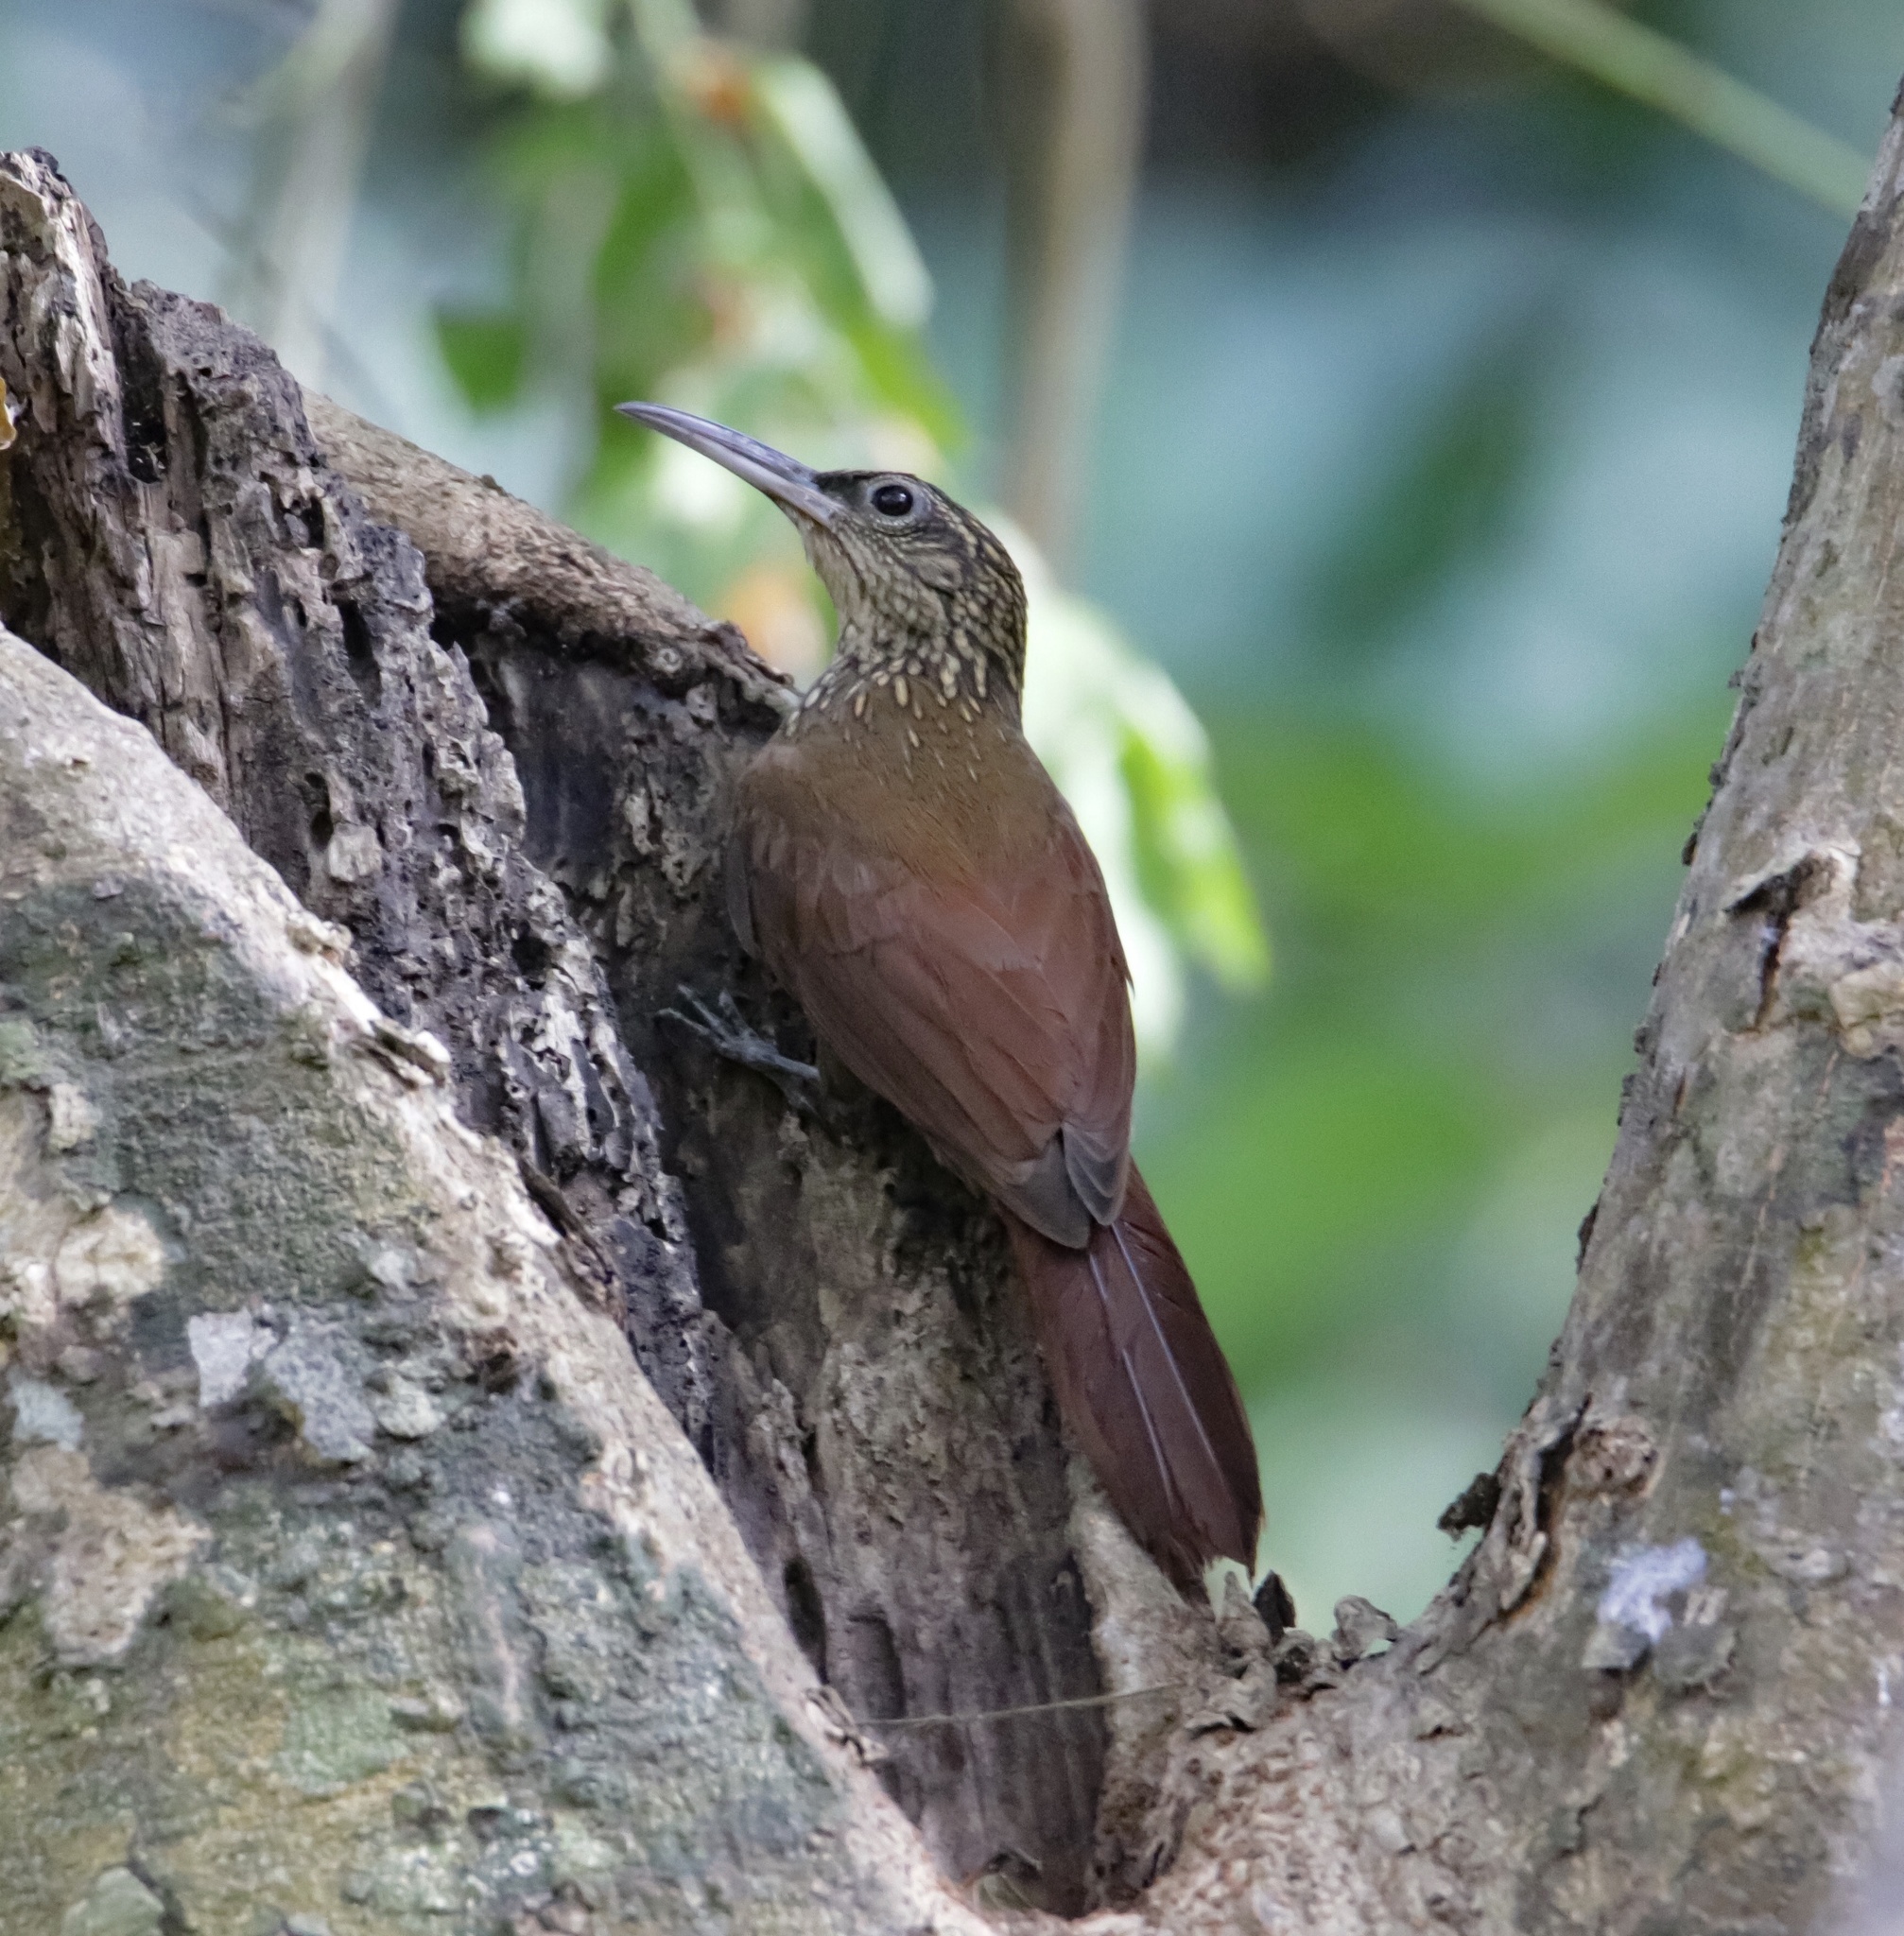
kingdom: Animalia
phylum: Chordata
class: Aves
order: Passeriformes
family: Furnariidae
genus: Xiphorhynchus
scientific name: Xiphorhynchus susurrans
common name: Cocoa woodcreeper
